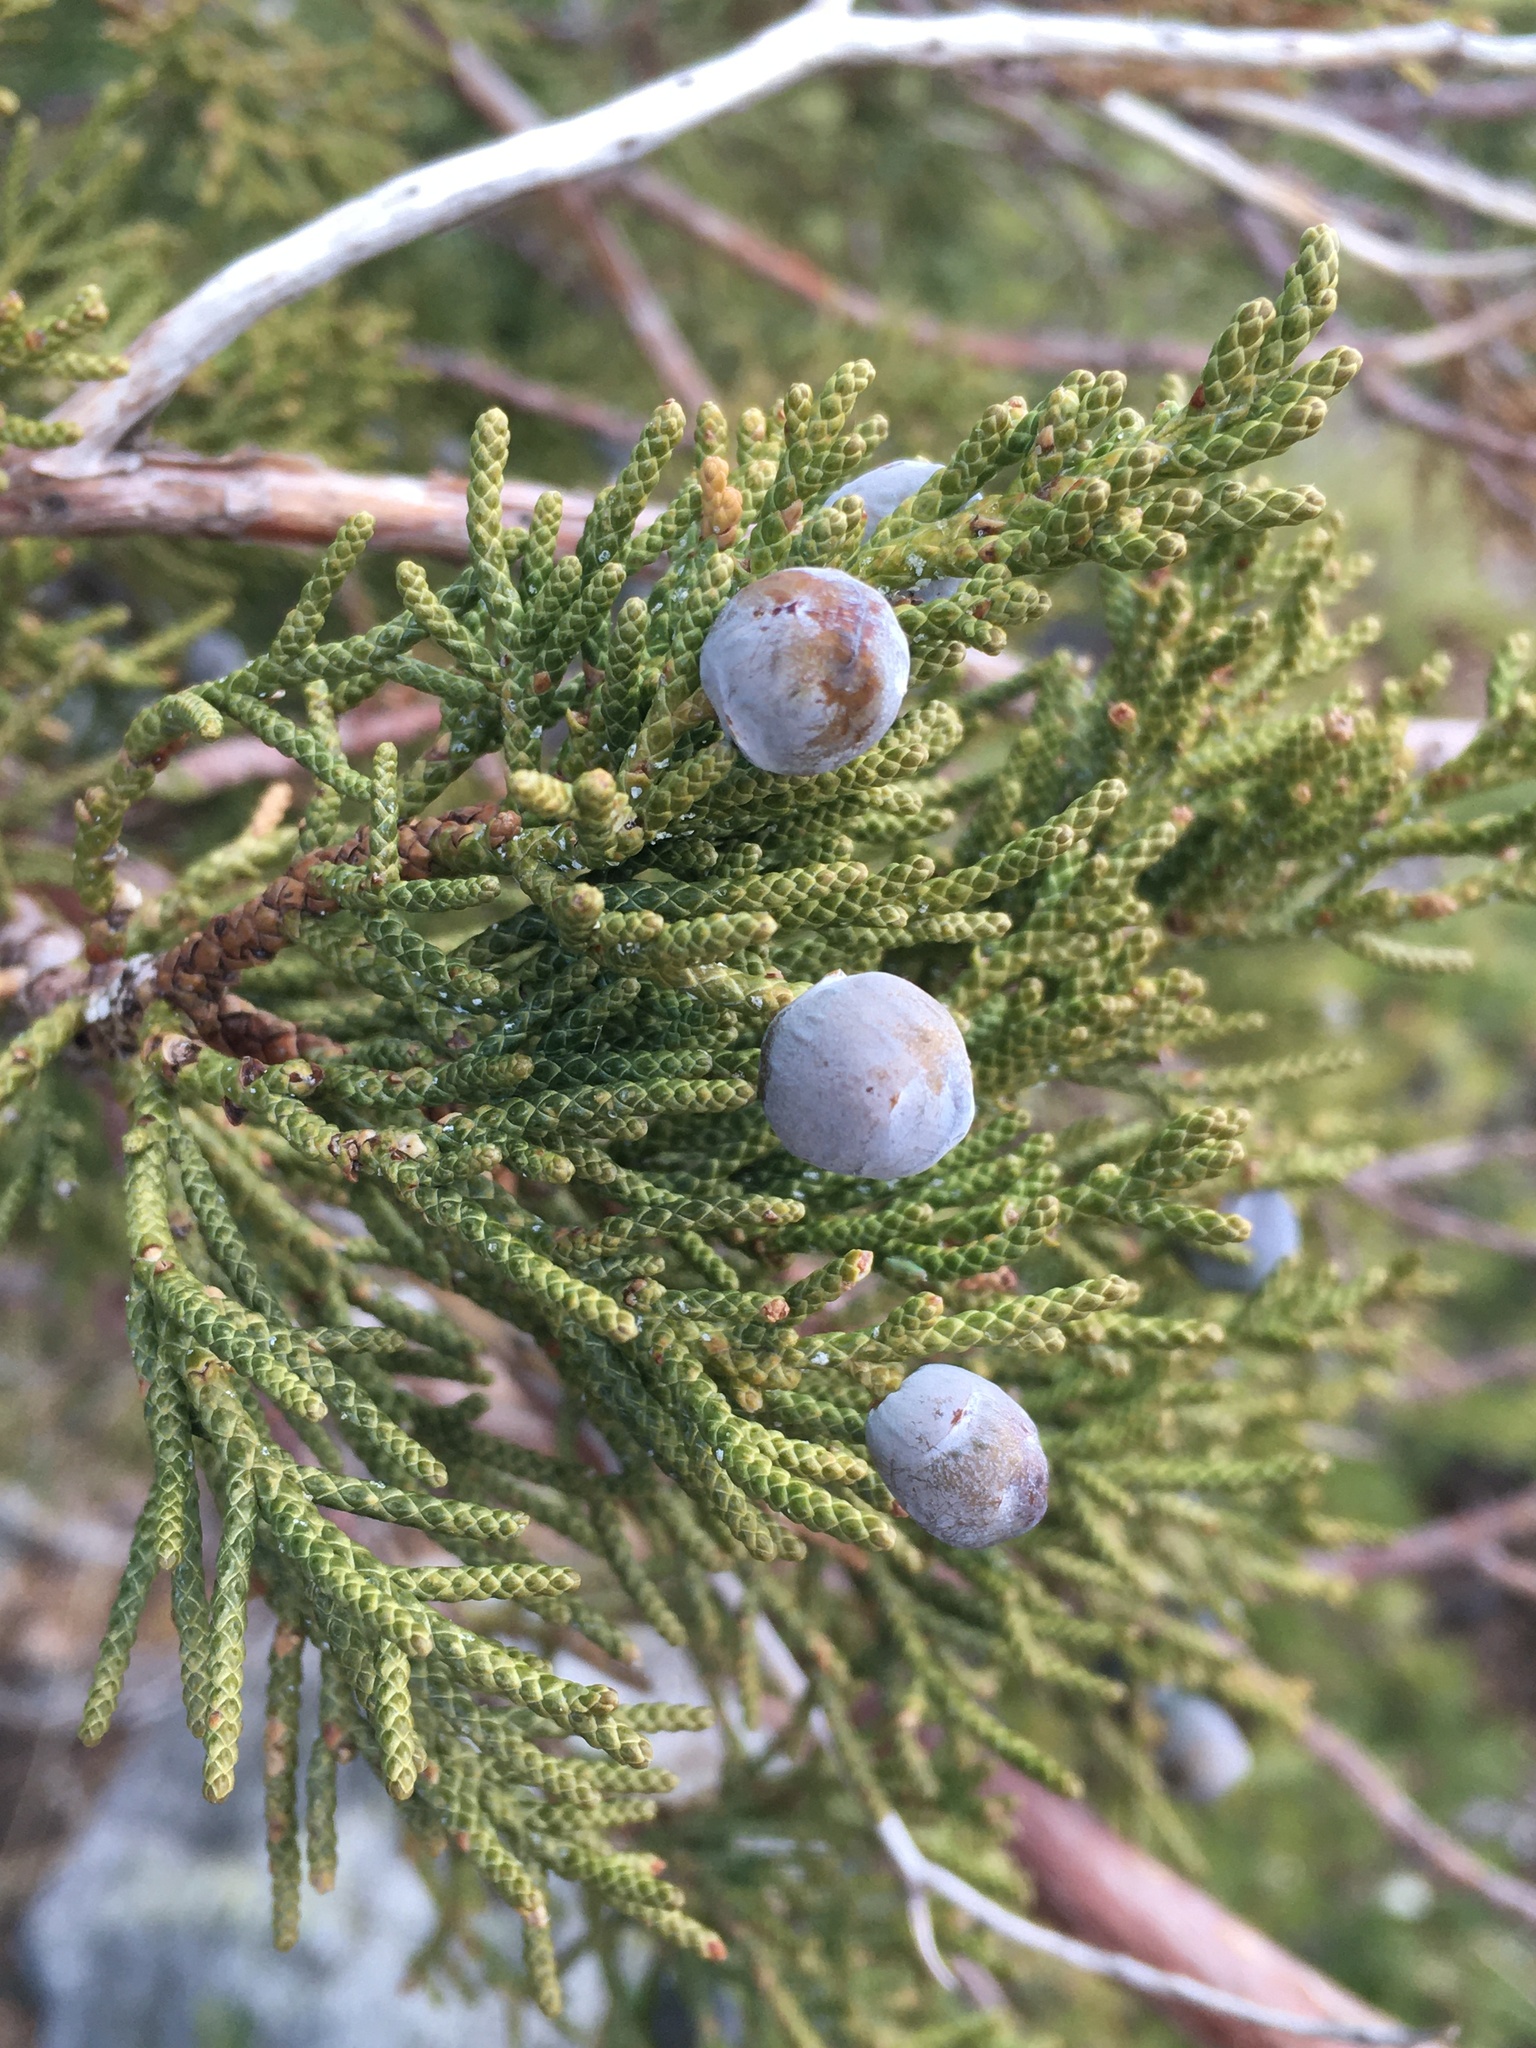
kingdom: Plantae
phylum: Tracheophyta
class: Pinopsida
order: Pinales
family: Cupressaceae
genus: Juniperus
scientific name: Juniperus occidentalis
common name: Western juniper
